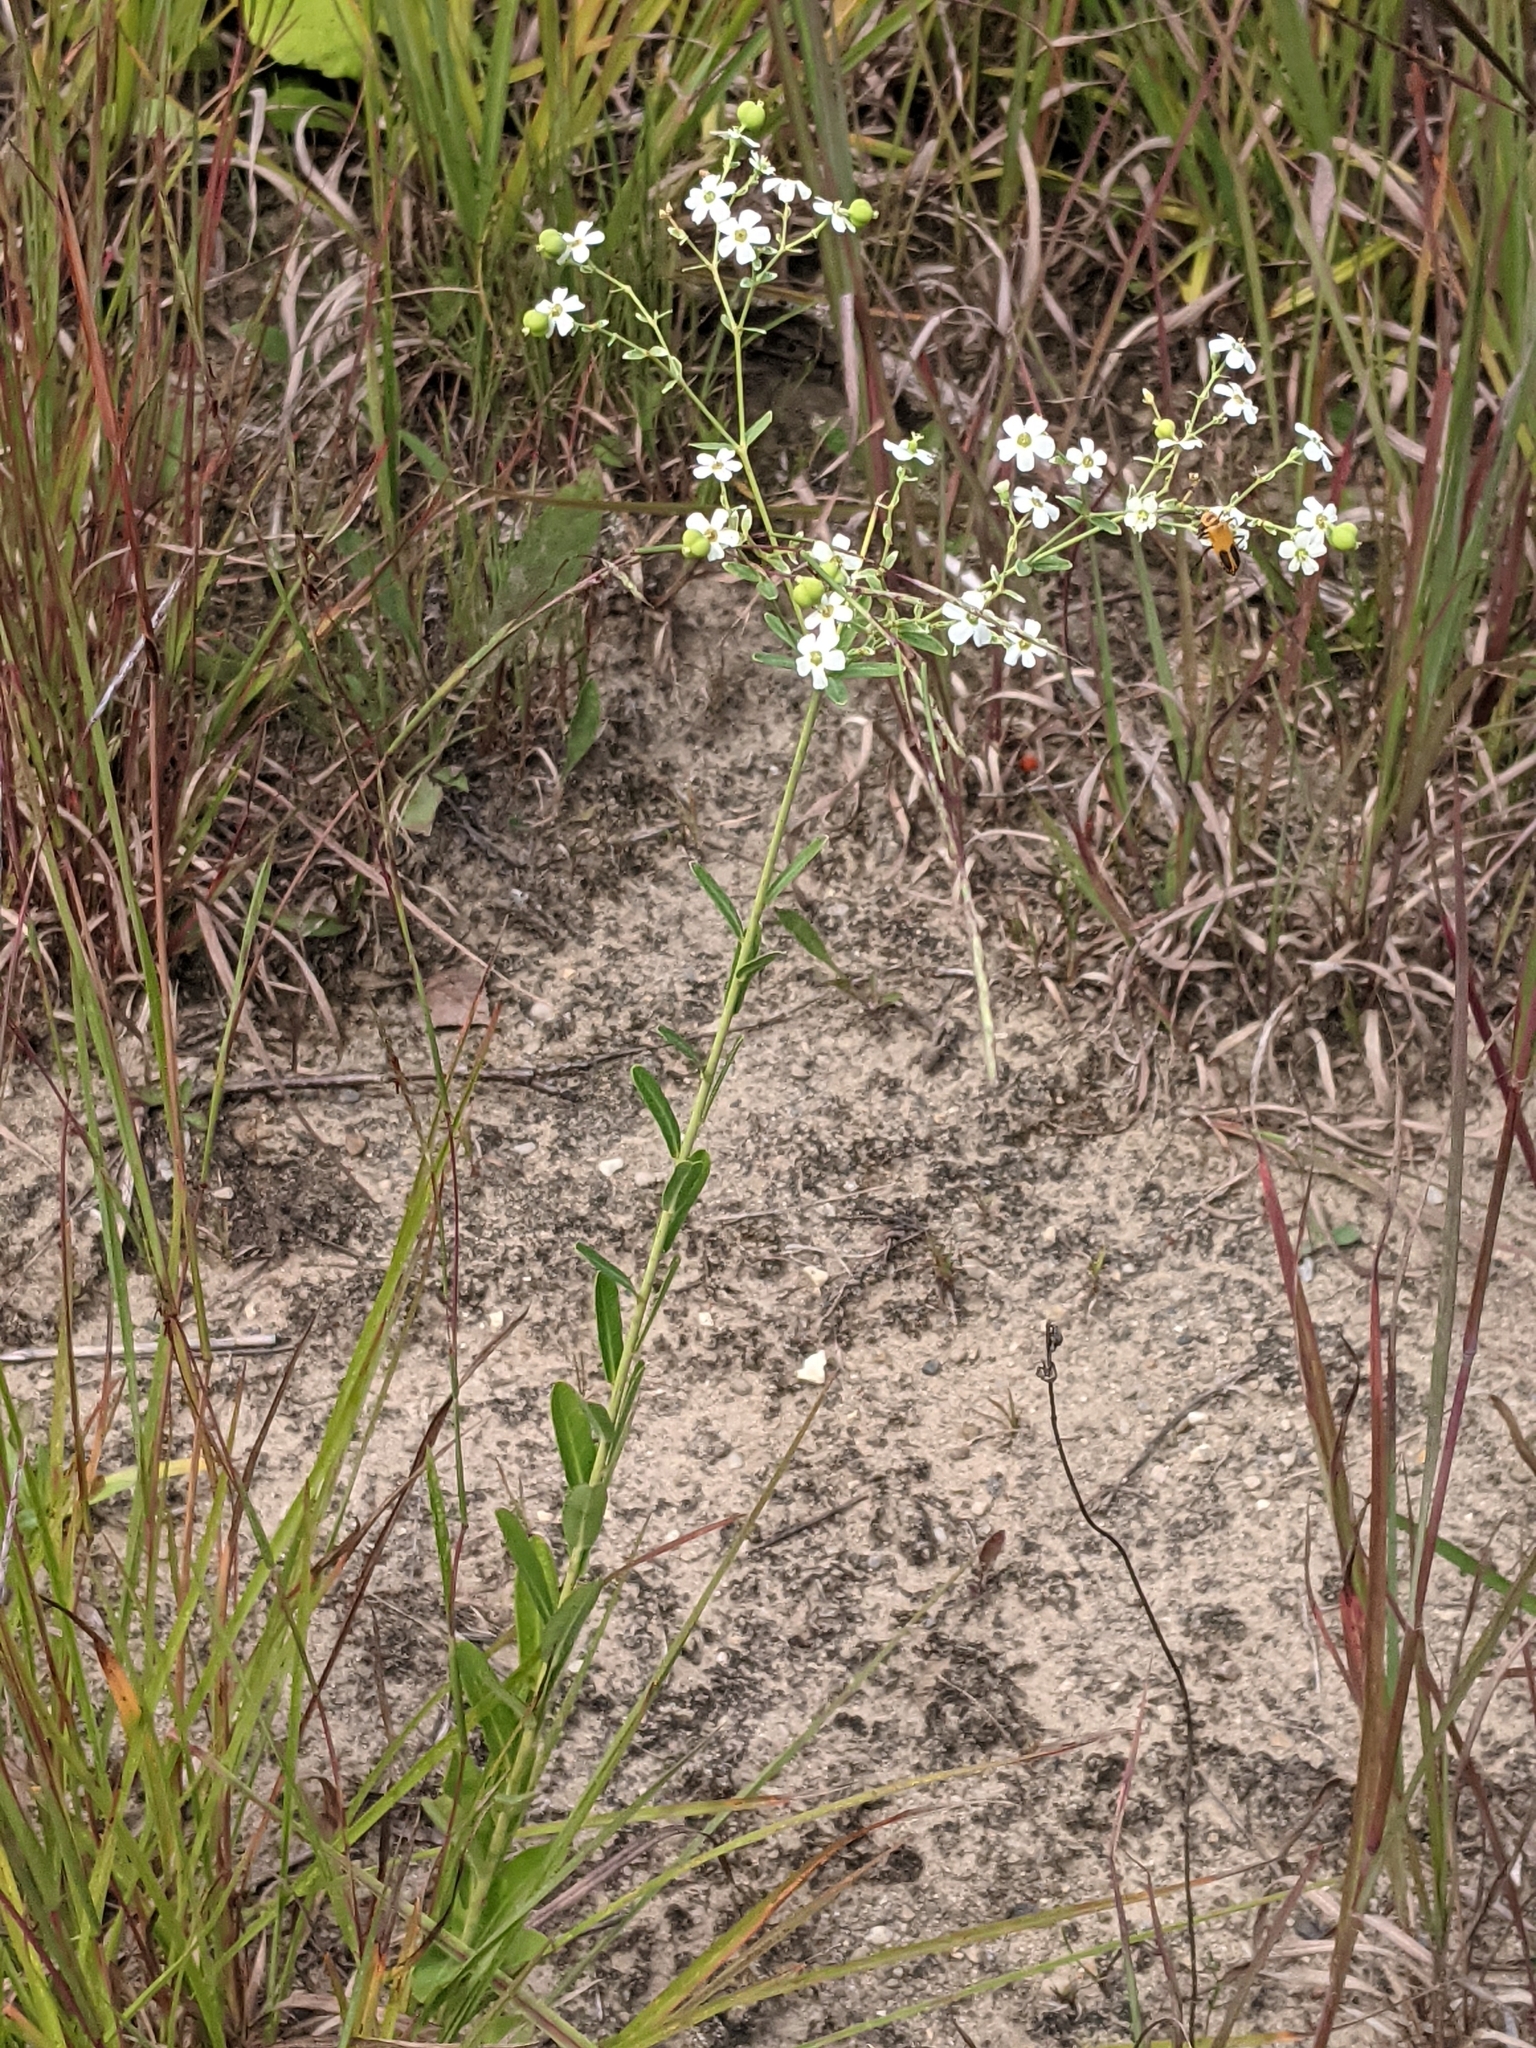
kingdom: Plantae
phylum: Tracheophyta
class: Magnoliopsida
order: Malpighiales
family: Euphorbiaceae
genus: Euphorbia
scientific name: Euphorbia corollata
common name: Flowering spurge
